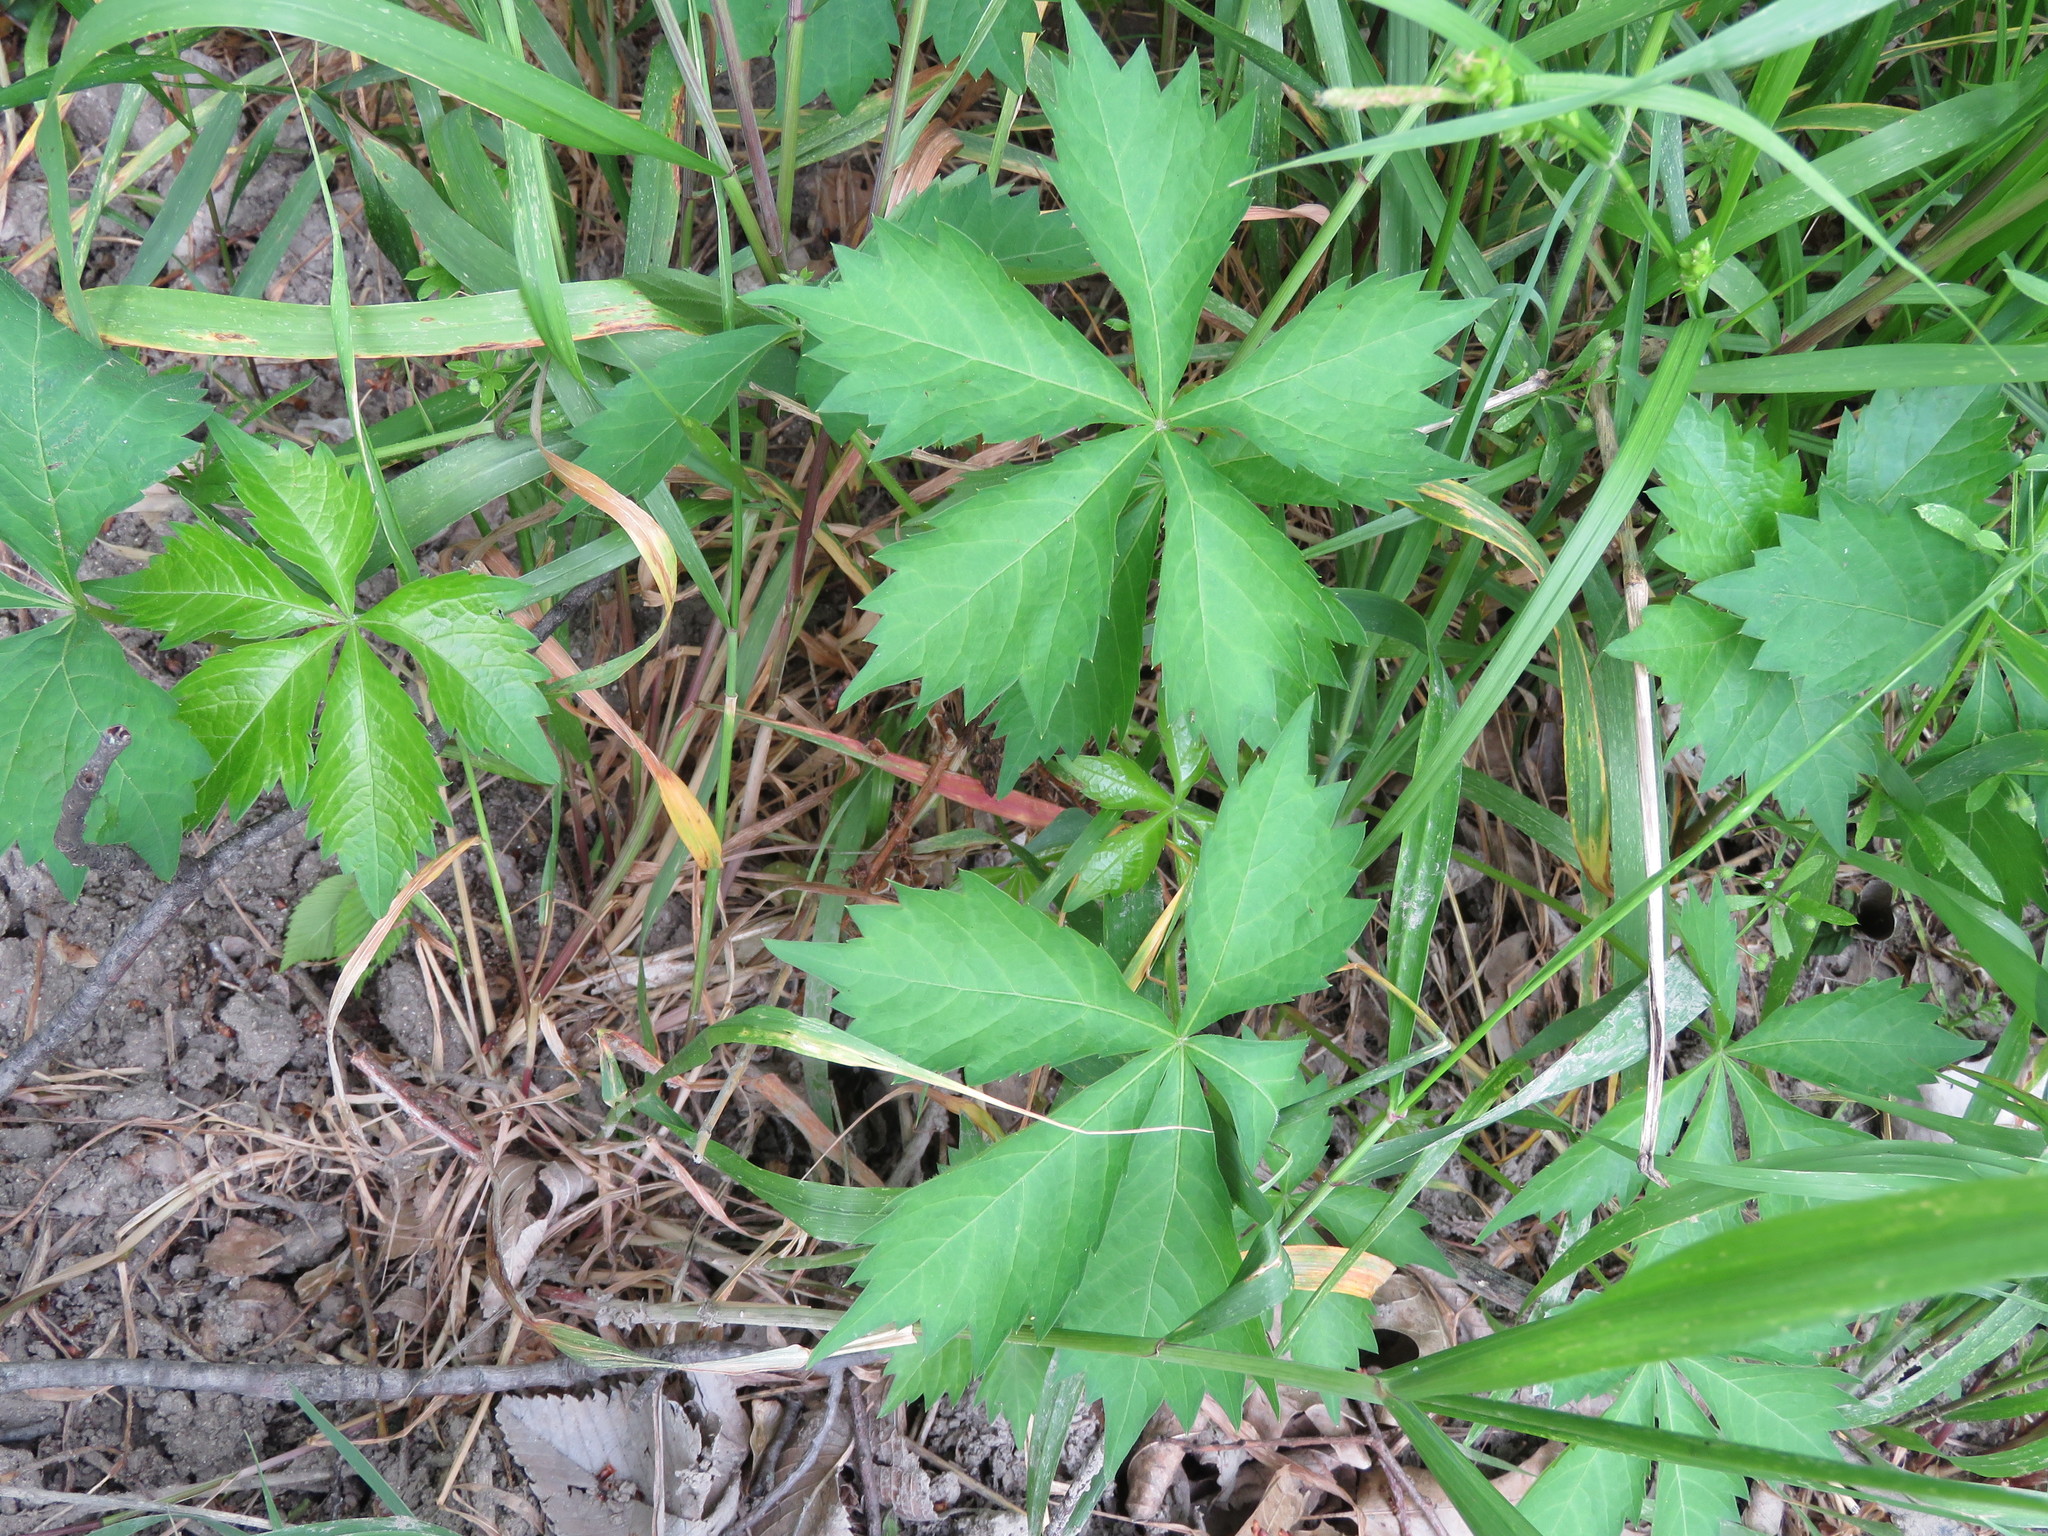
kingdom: Plantae
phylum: Tracheophyta
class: Magnoliopsida
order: Vitales
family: Vitaceae
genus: Parthenocissus
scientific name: Parthenocissus quinquefolia
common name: Virginia-creeper
